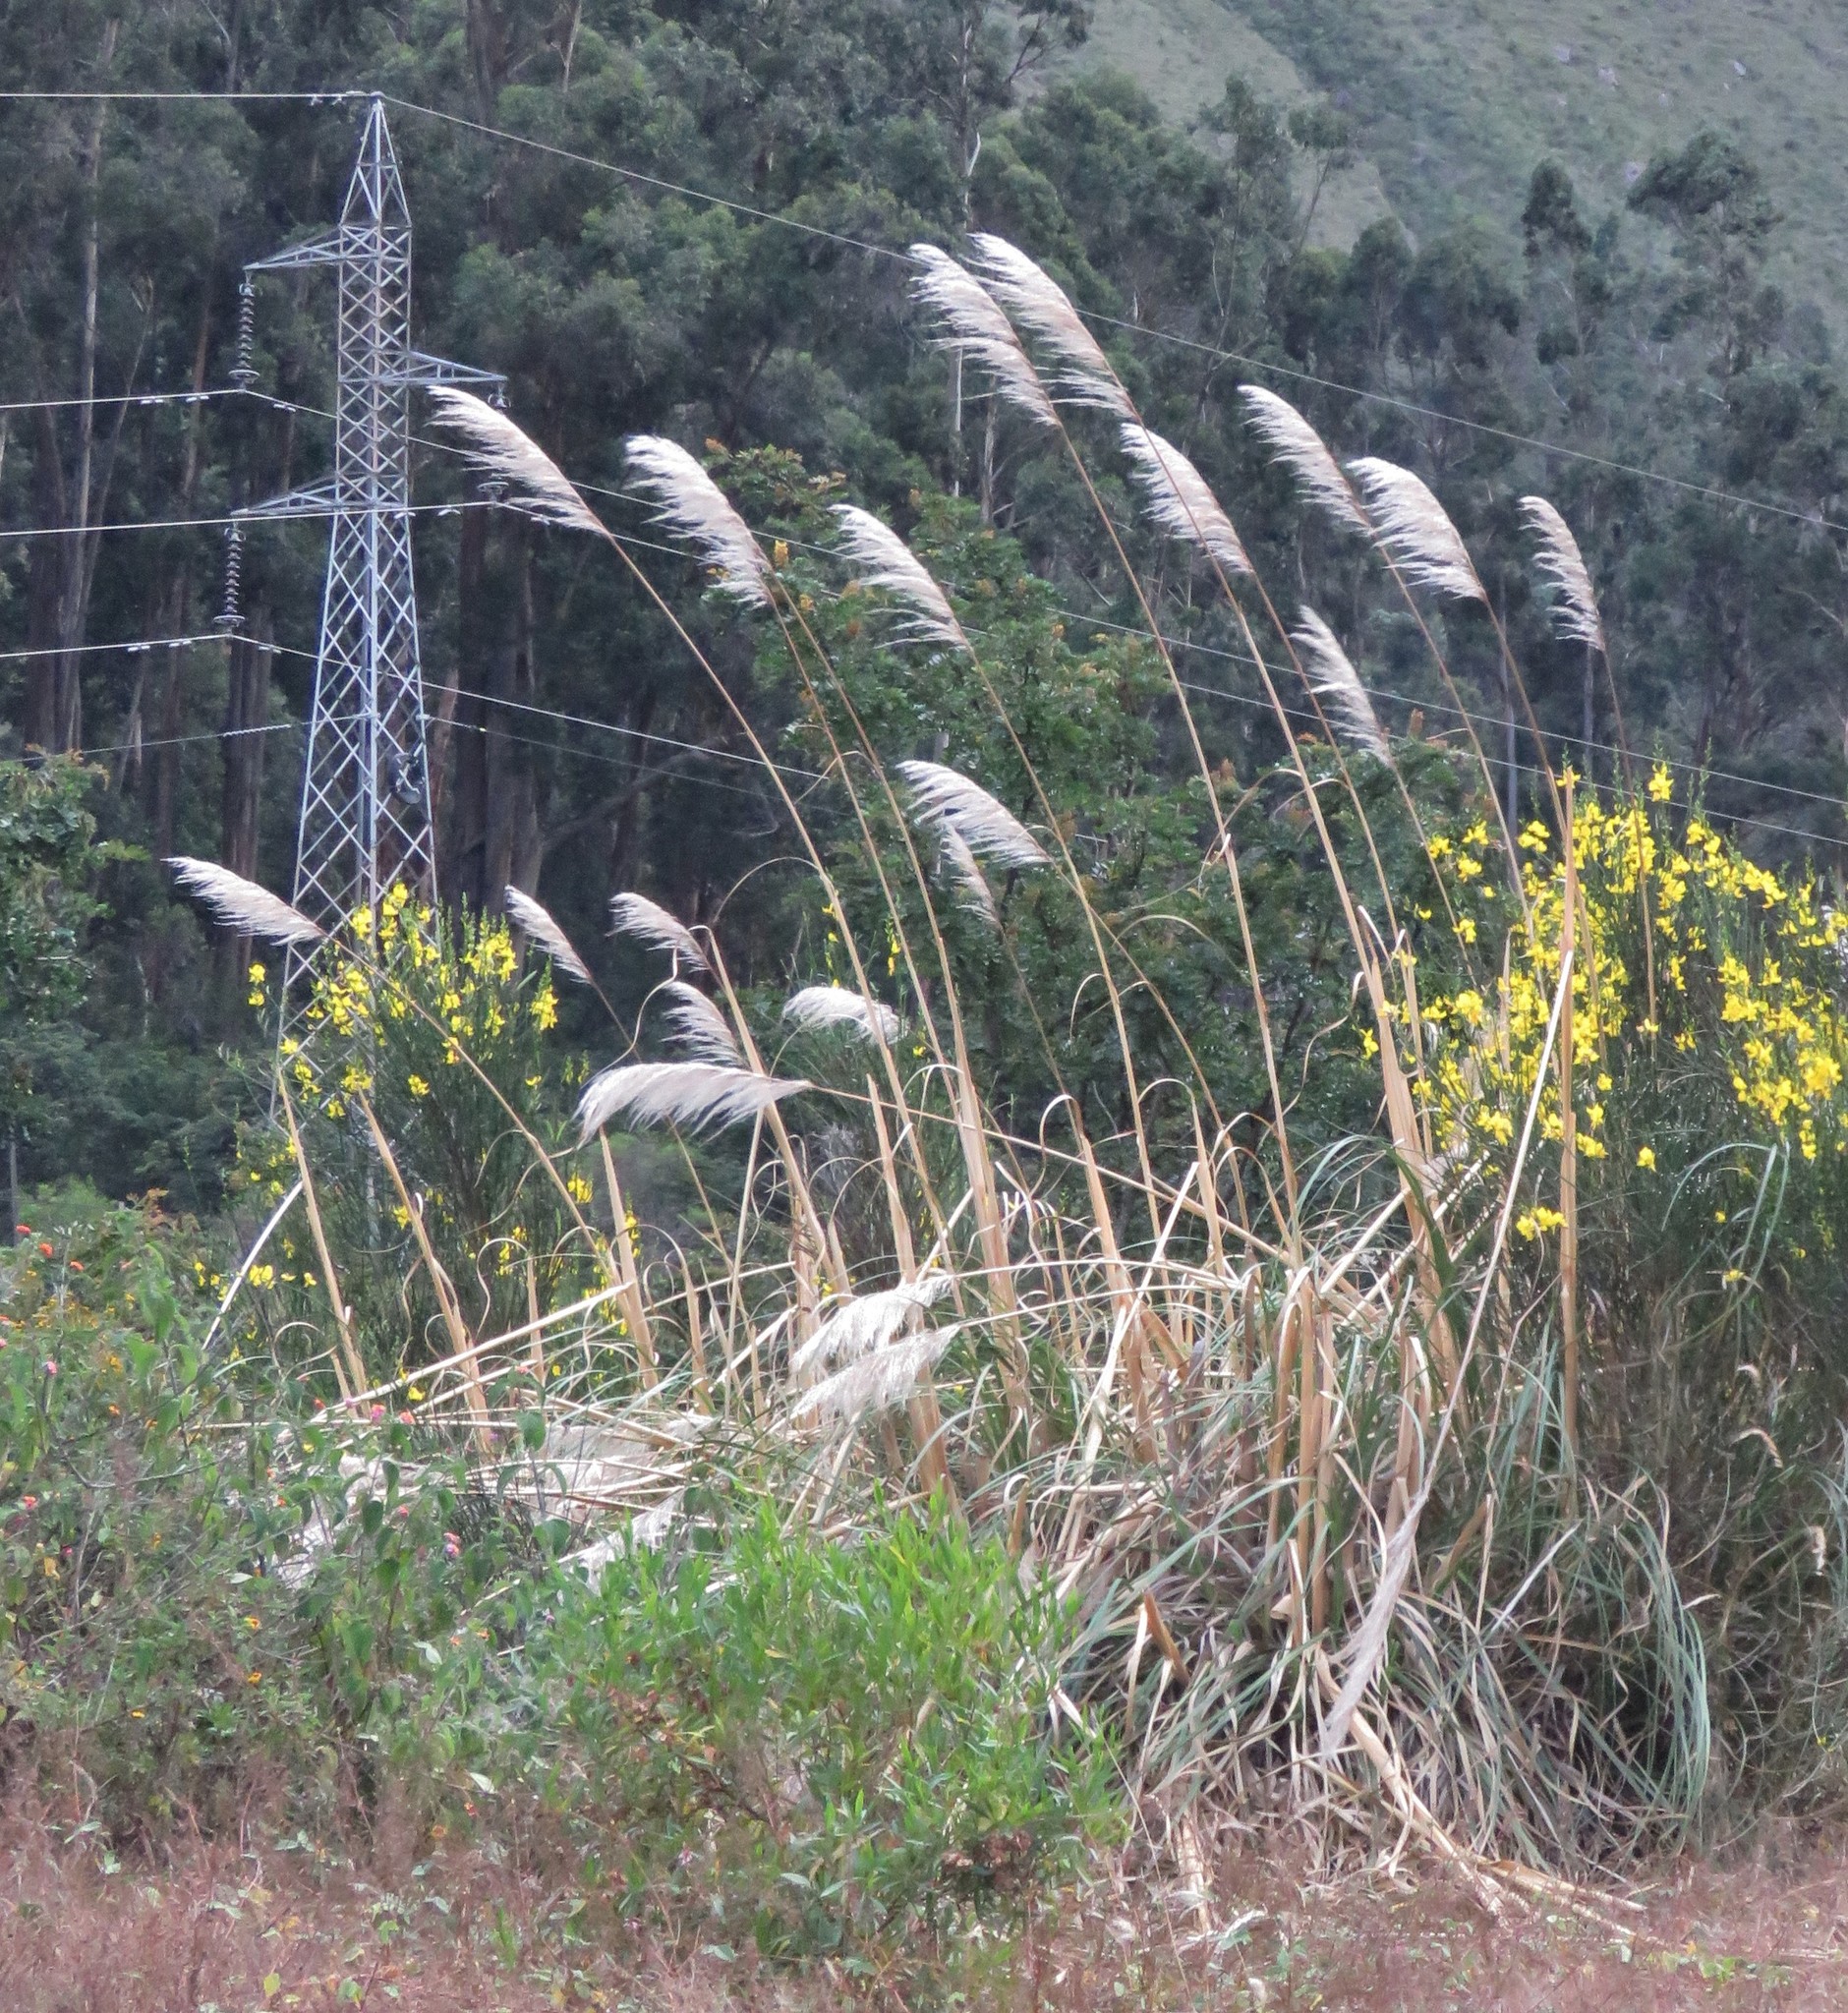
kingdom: Plantae
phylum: Tracheophyta
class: Liliopsida
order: Poales
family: Poaceae
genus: Cortaderia
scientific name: Cortaderia selloana
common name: Uruguayan pampas grass
